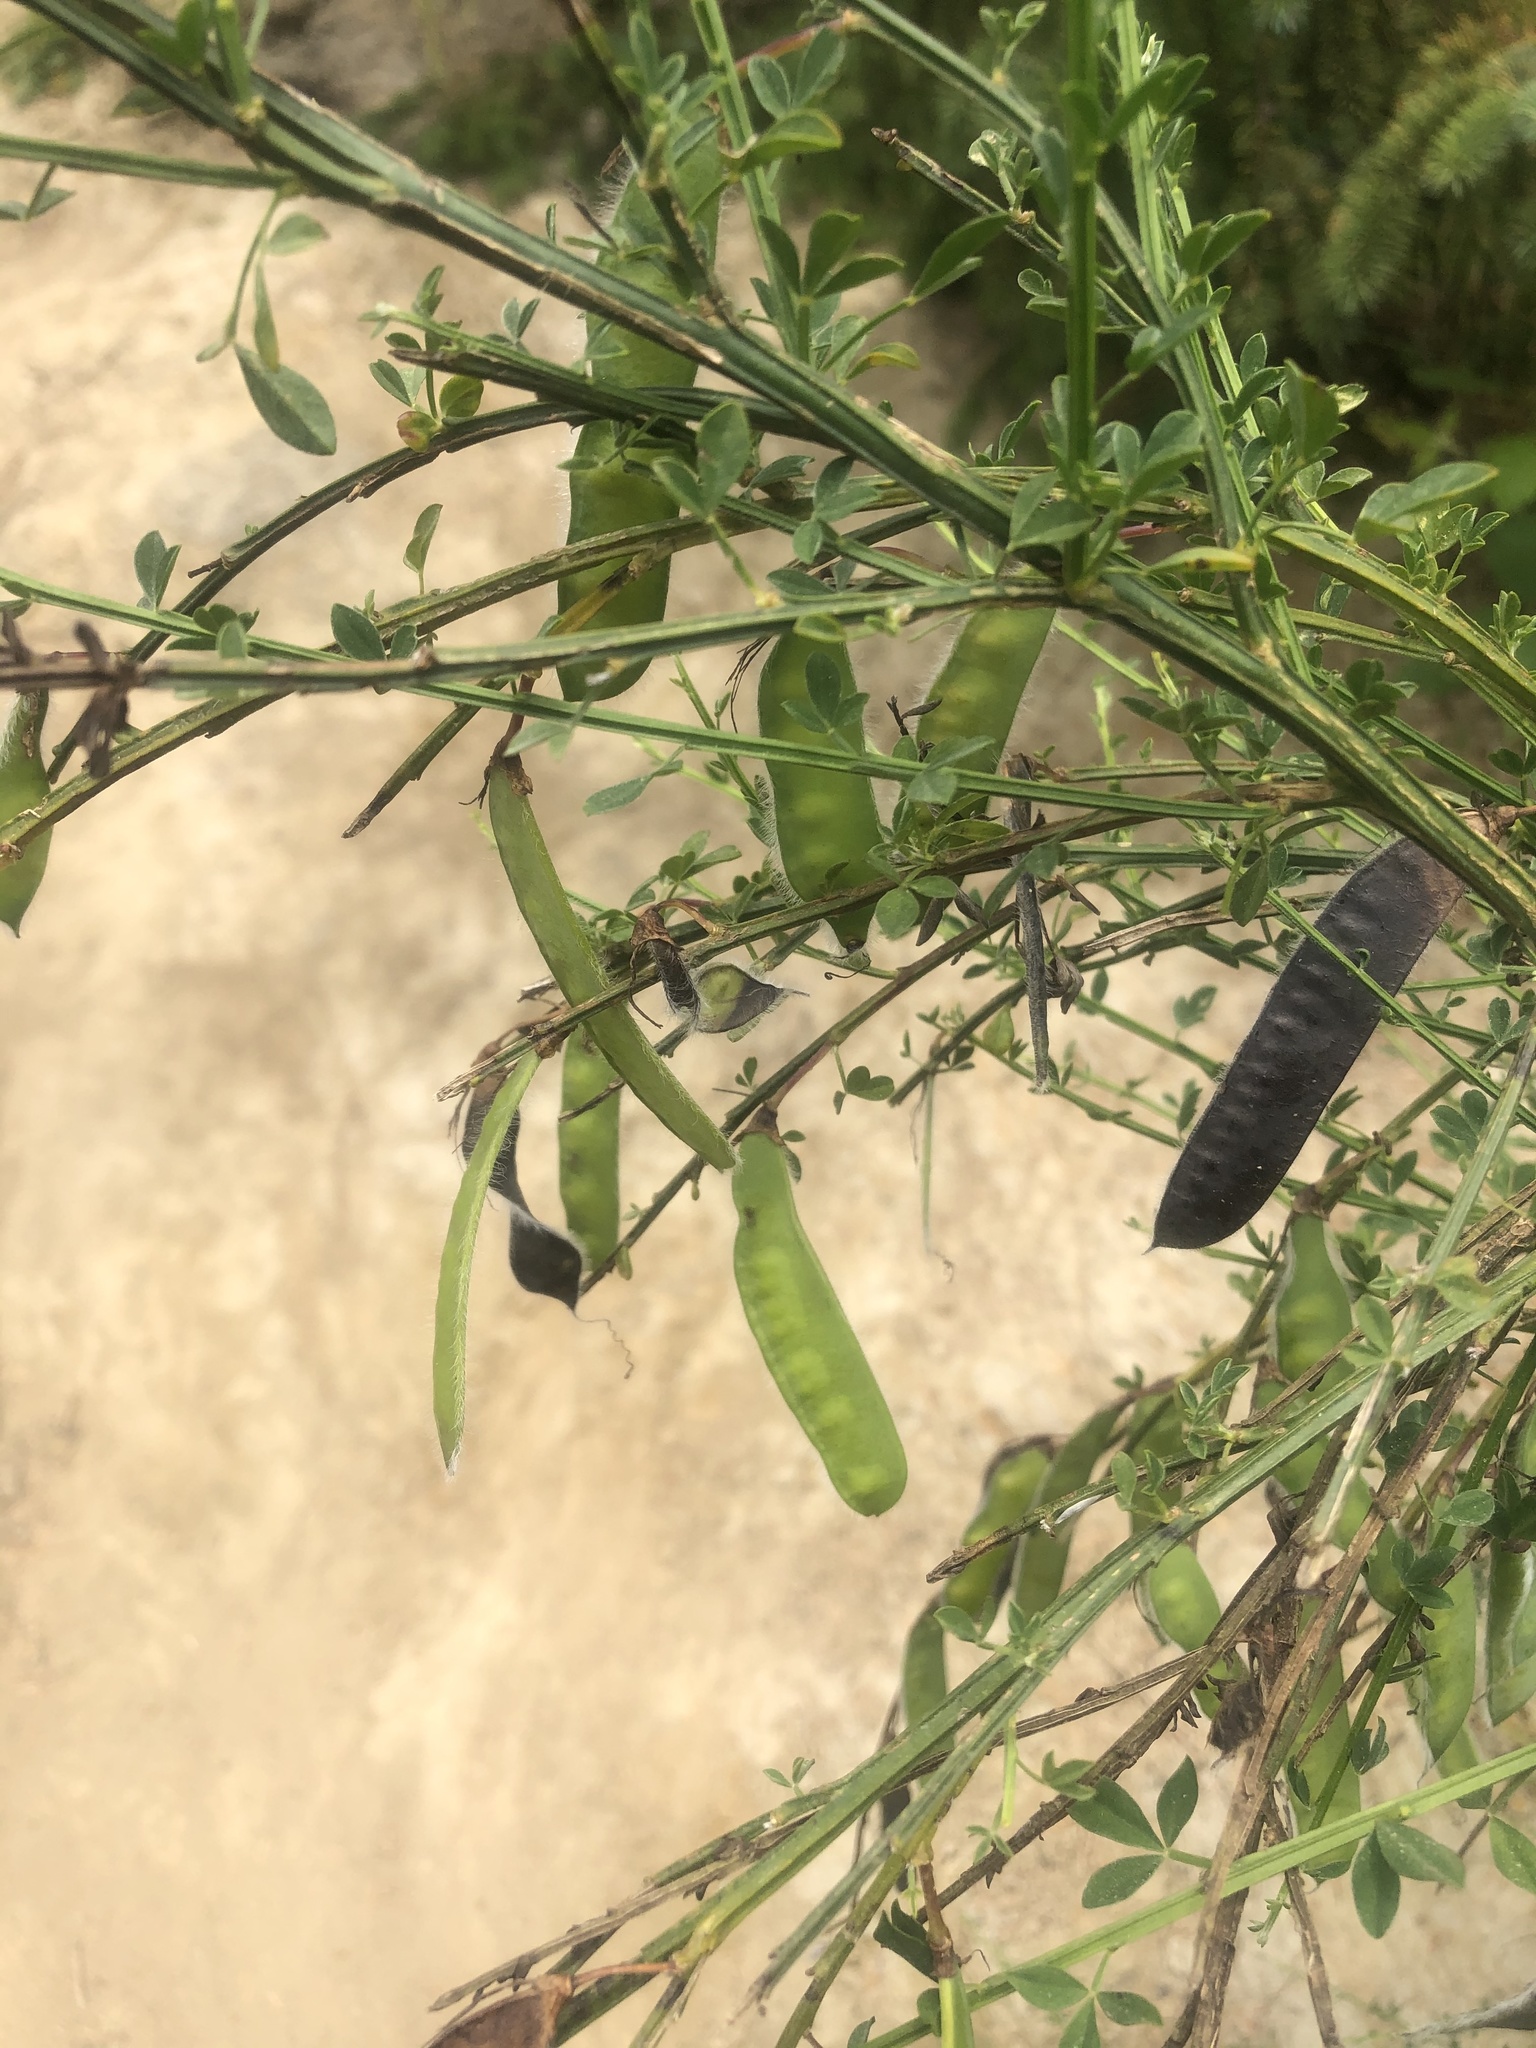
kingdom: Plantae
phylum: Tracheophyta
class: Magnoliopsida
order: Fabales
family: Fabaceae
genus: Cytisus
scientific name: Cytisus scoparius
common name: Scotch broom
